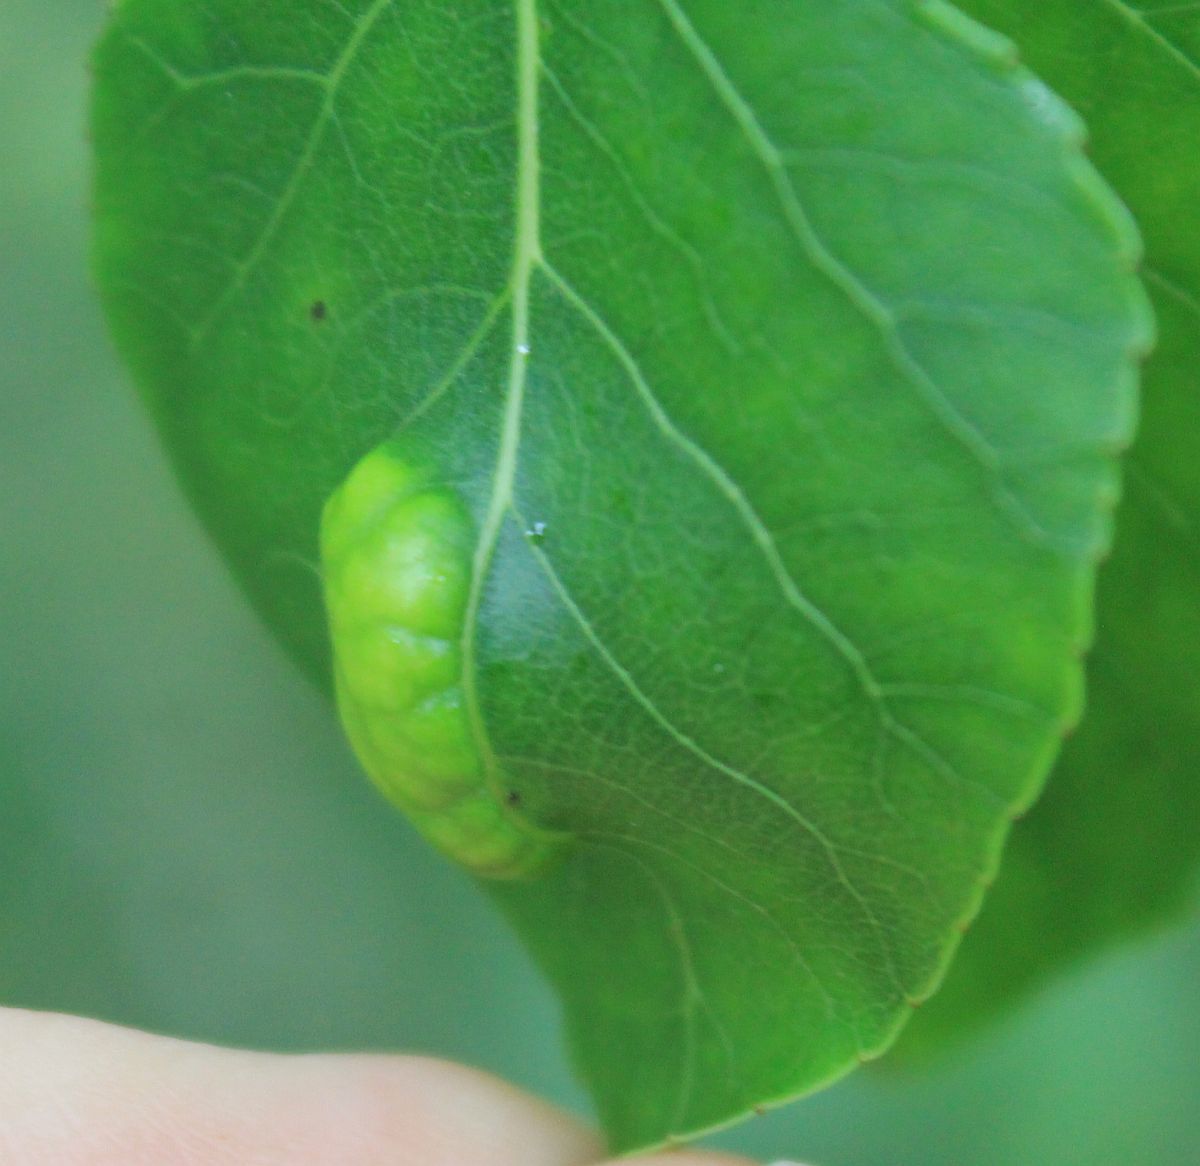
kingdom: Fungi
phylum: Ascomycota
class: Taphrinomycetes
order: Taphrinales
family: Taphrinaceae
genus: Taphrina
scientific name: Taphrina populina
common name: Poplar leaf curl
